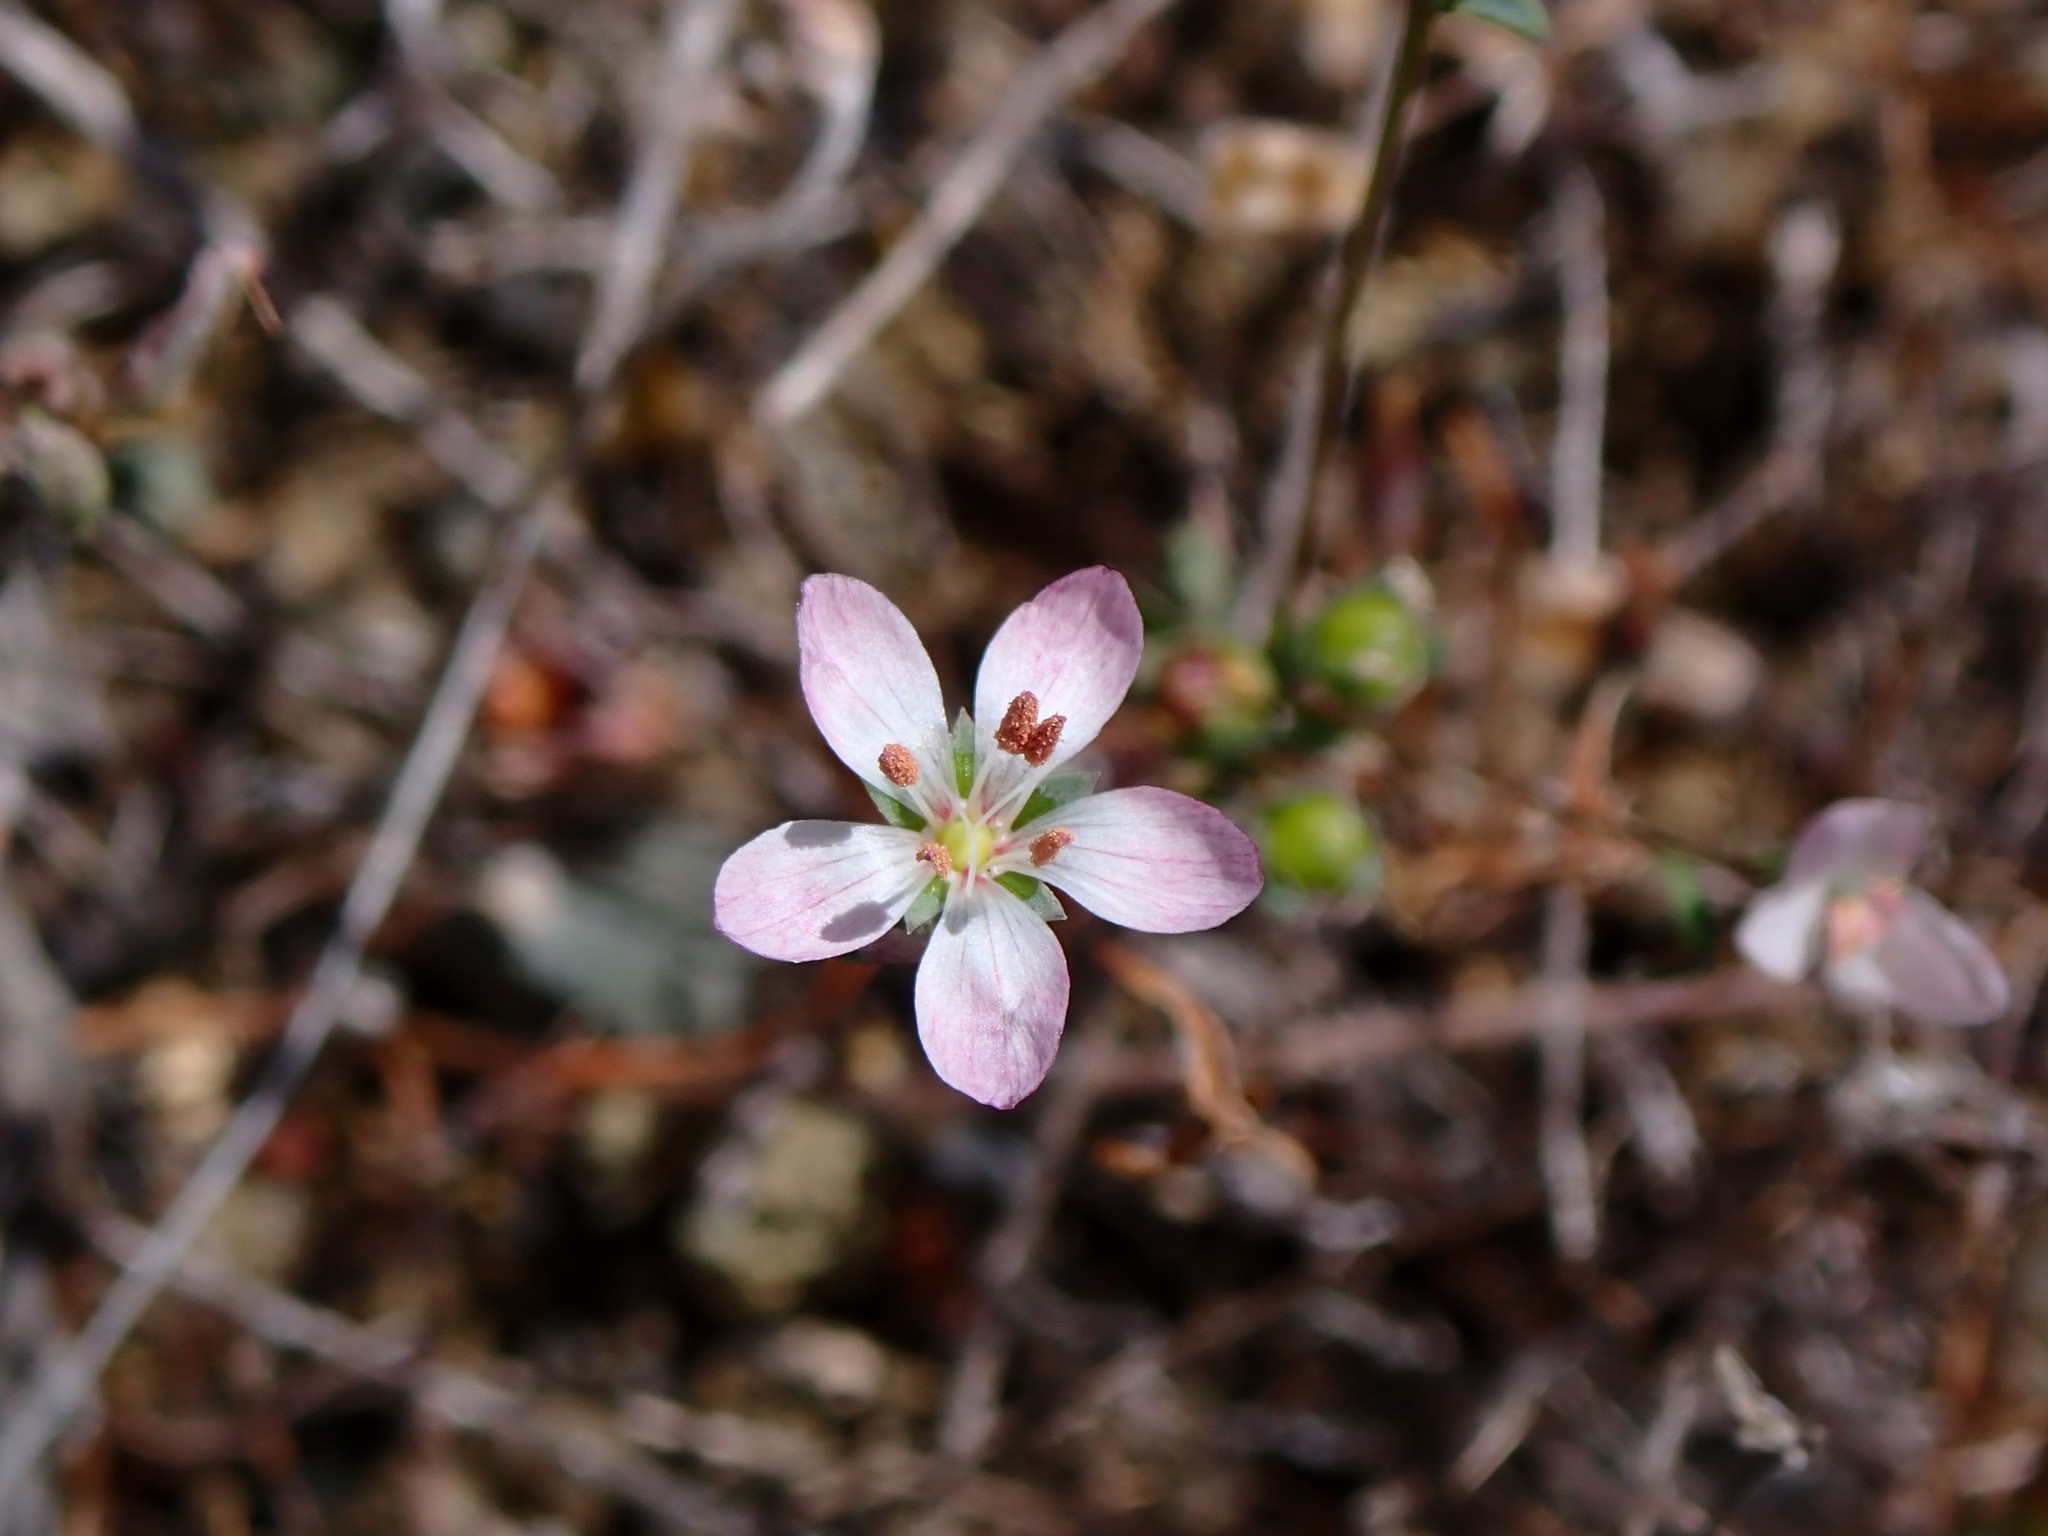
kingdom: Plantae
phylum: Tracheophyta
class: Magnoliopsida
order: Malpighiales
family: Linaceae
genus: Hesperolinon
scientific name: Hesperolinon congestum
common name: Marin dwarf-flax
